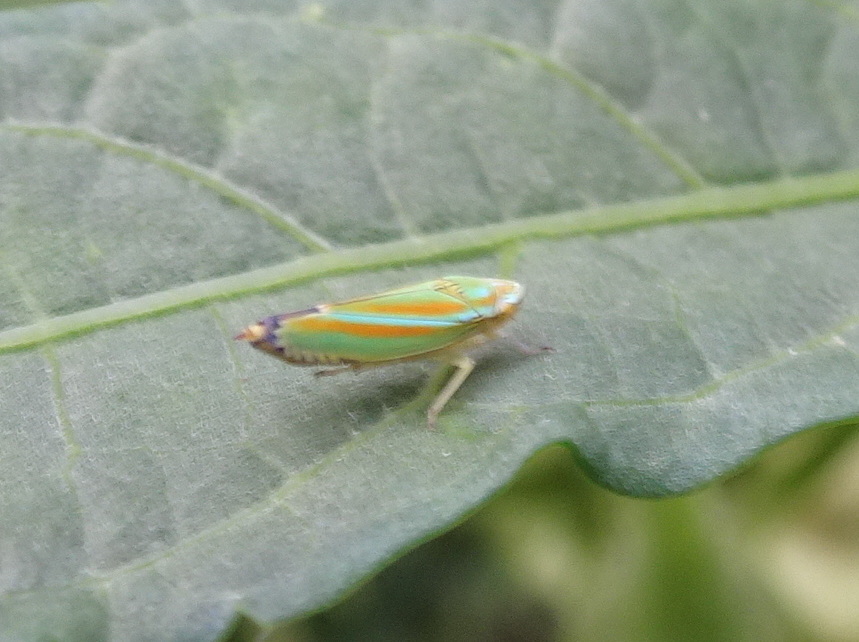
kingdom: Animalia
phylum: Arthropoda
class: Insecta
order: Hemiptera
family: Cicadellidae
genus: Graphocephala
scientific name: Graphocephala versuta
